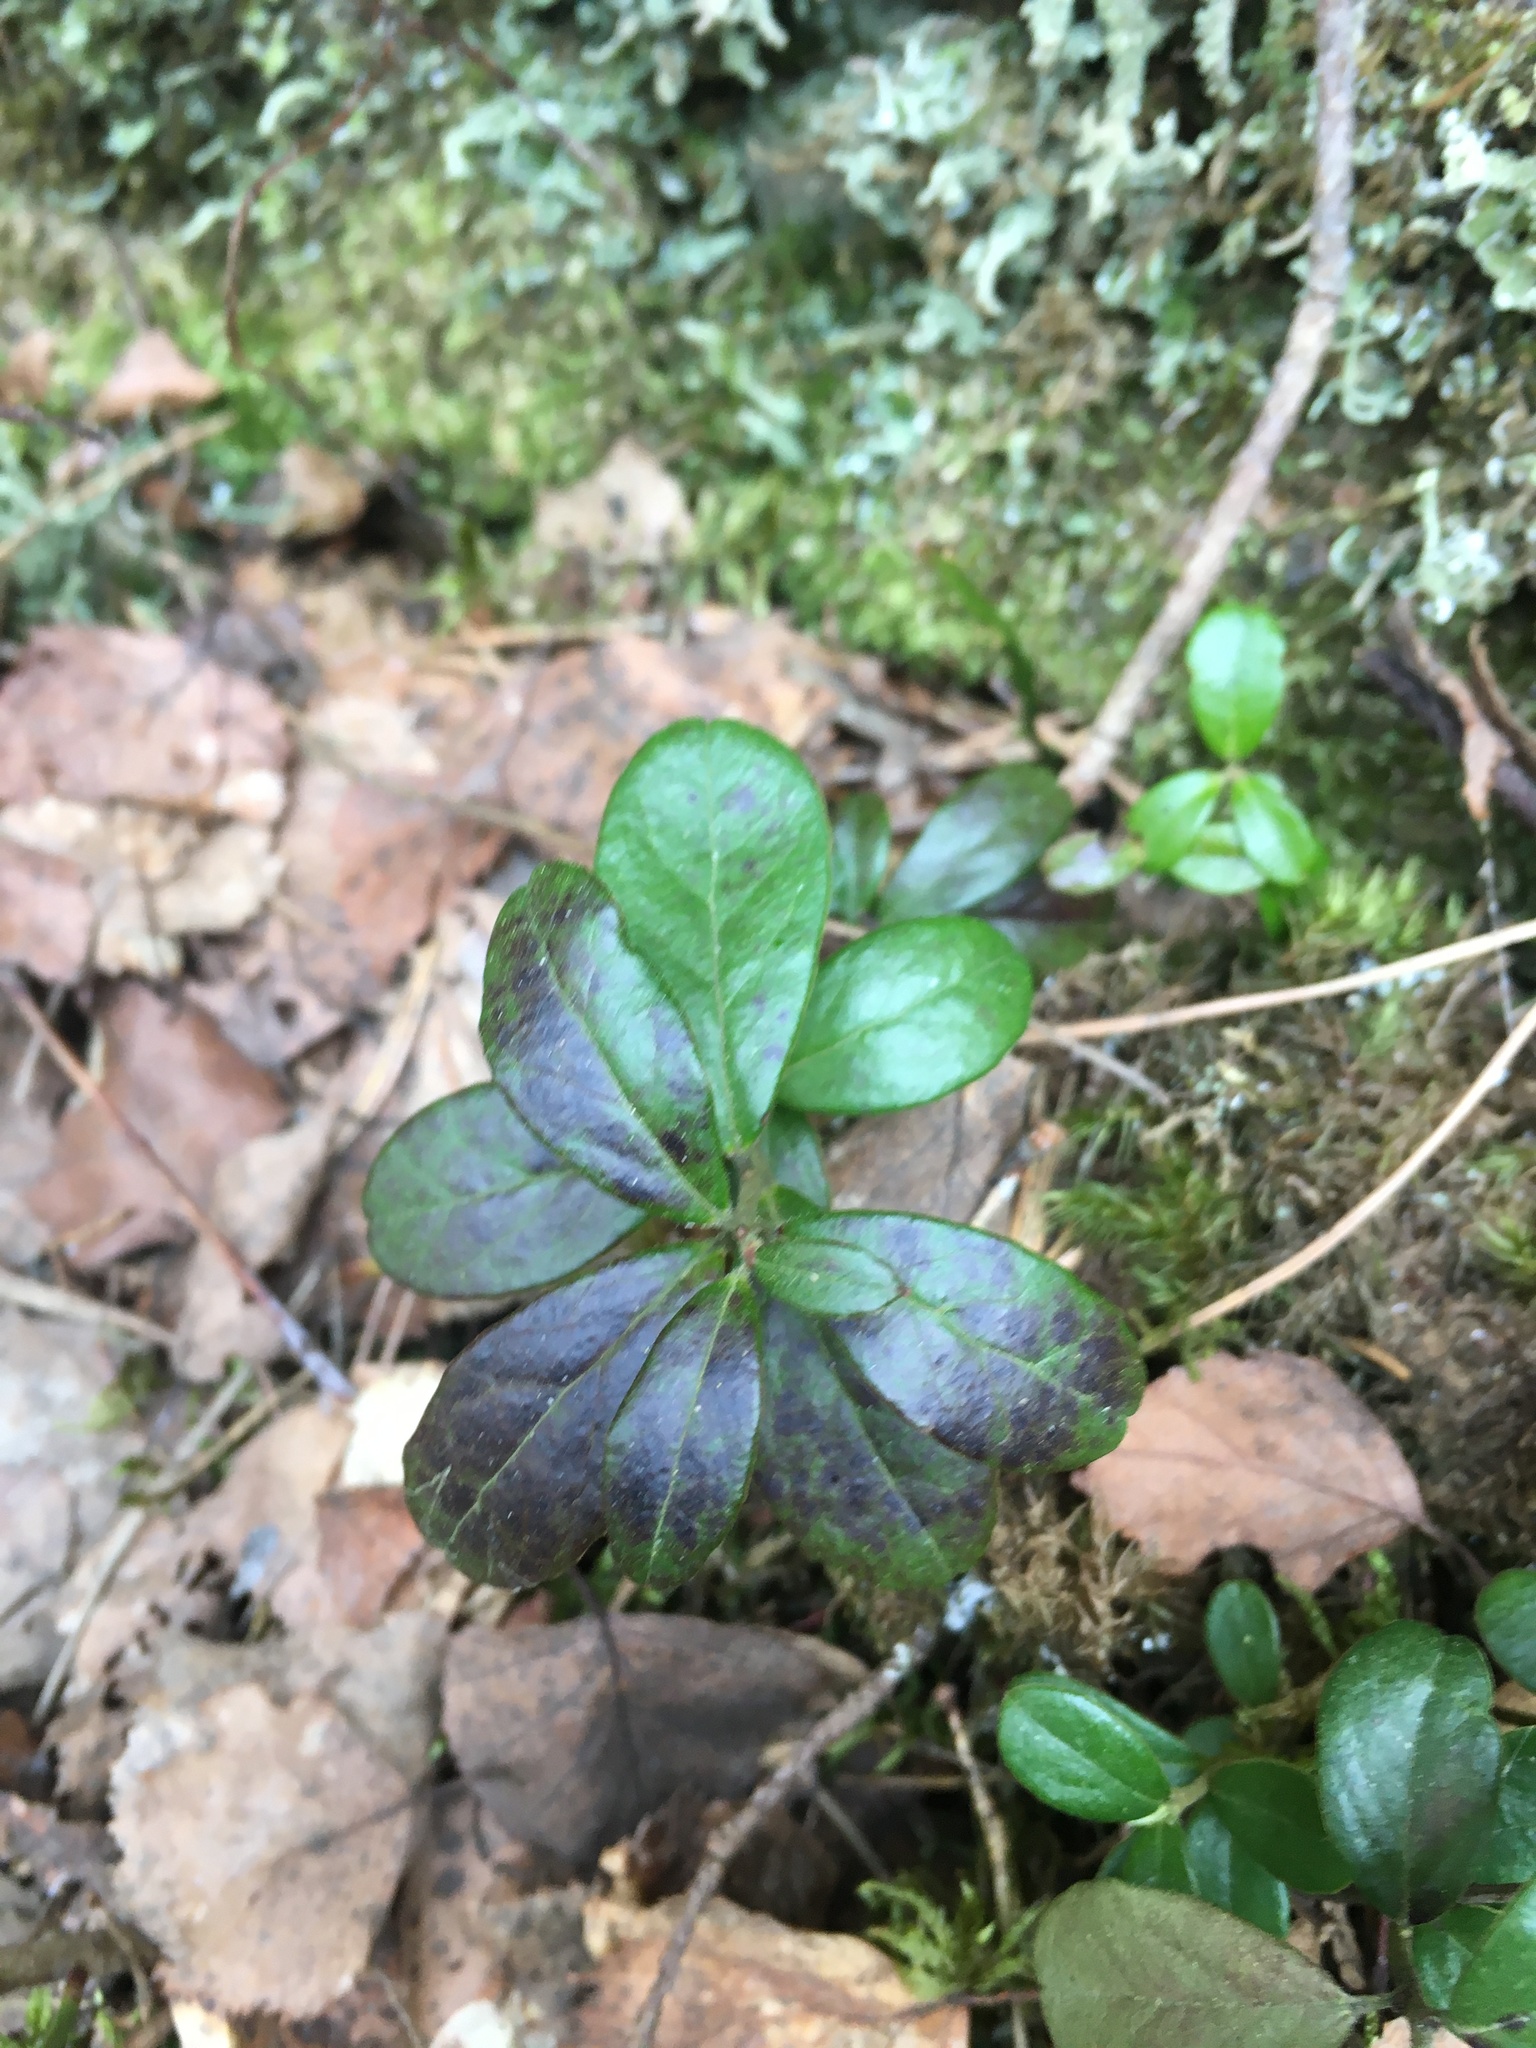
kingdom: Plantae
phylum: Tracheophyta
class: Magnoliopsida
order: Ericales
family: Ericaceae
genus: Vaccinium
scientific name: Vaccinium vitis-idaea
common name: Cowberry
